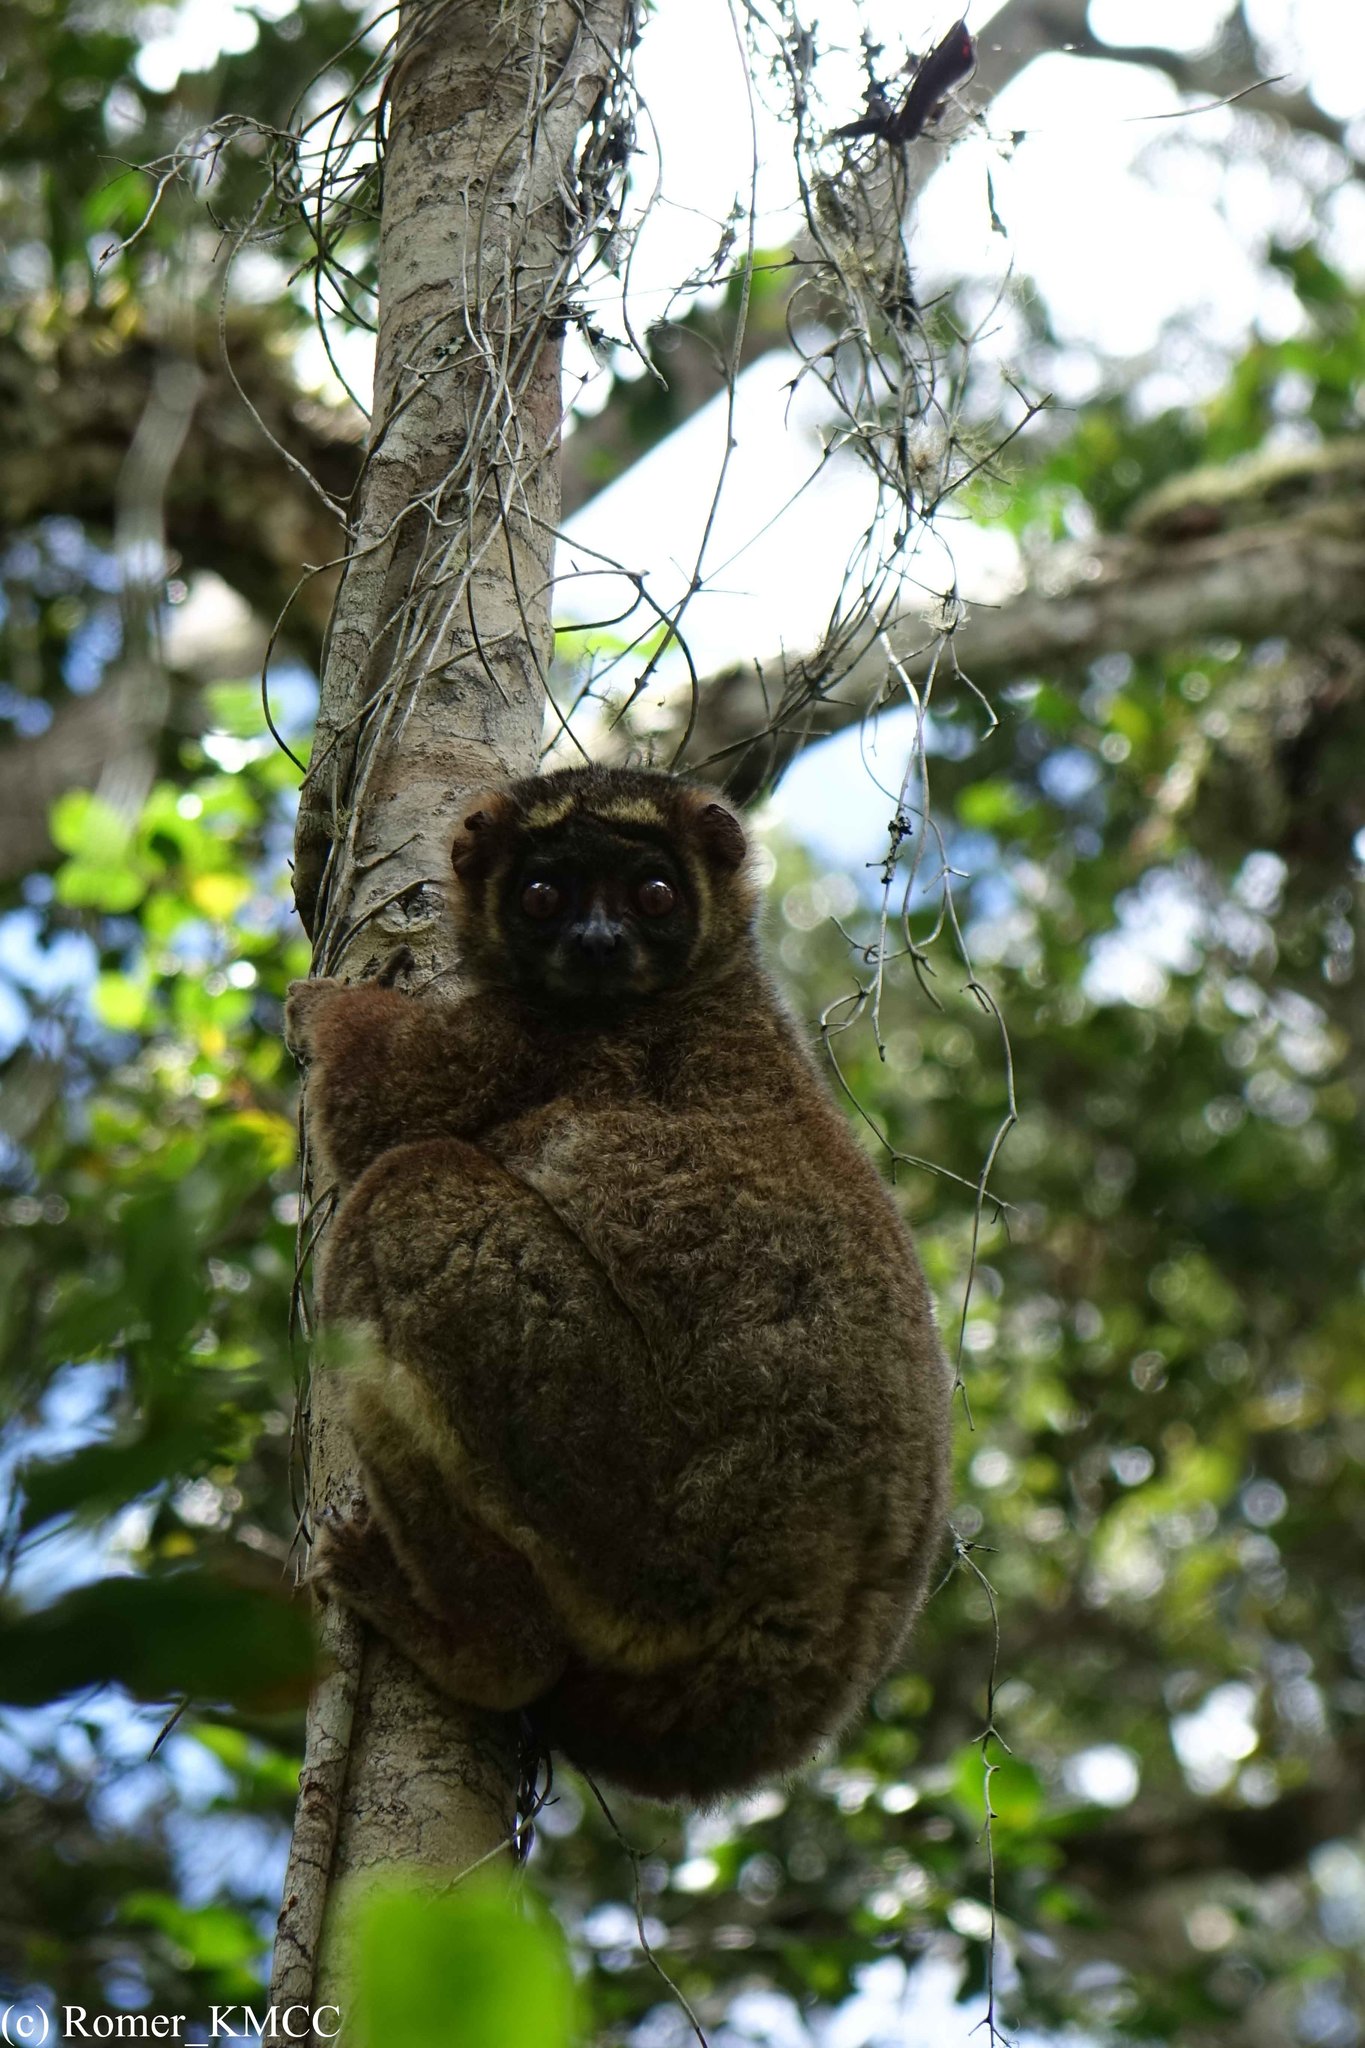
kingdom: Animalia
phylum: Chordata
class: Mammalia
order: Primates
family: Indriidae
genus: Avahi
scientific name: Avahi laniger
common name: Eastern woolly lemur
